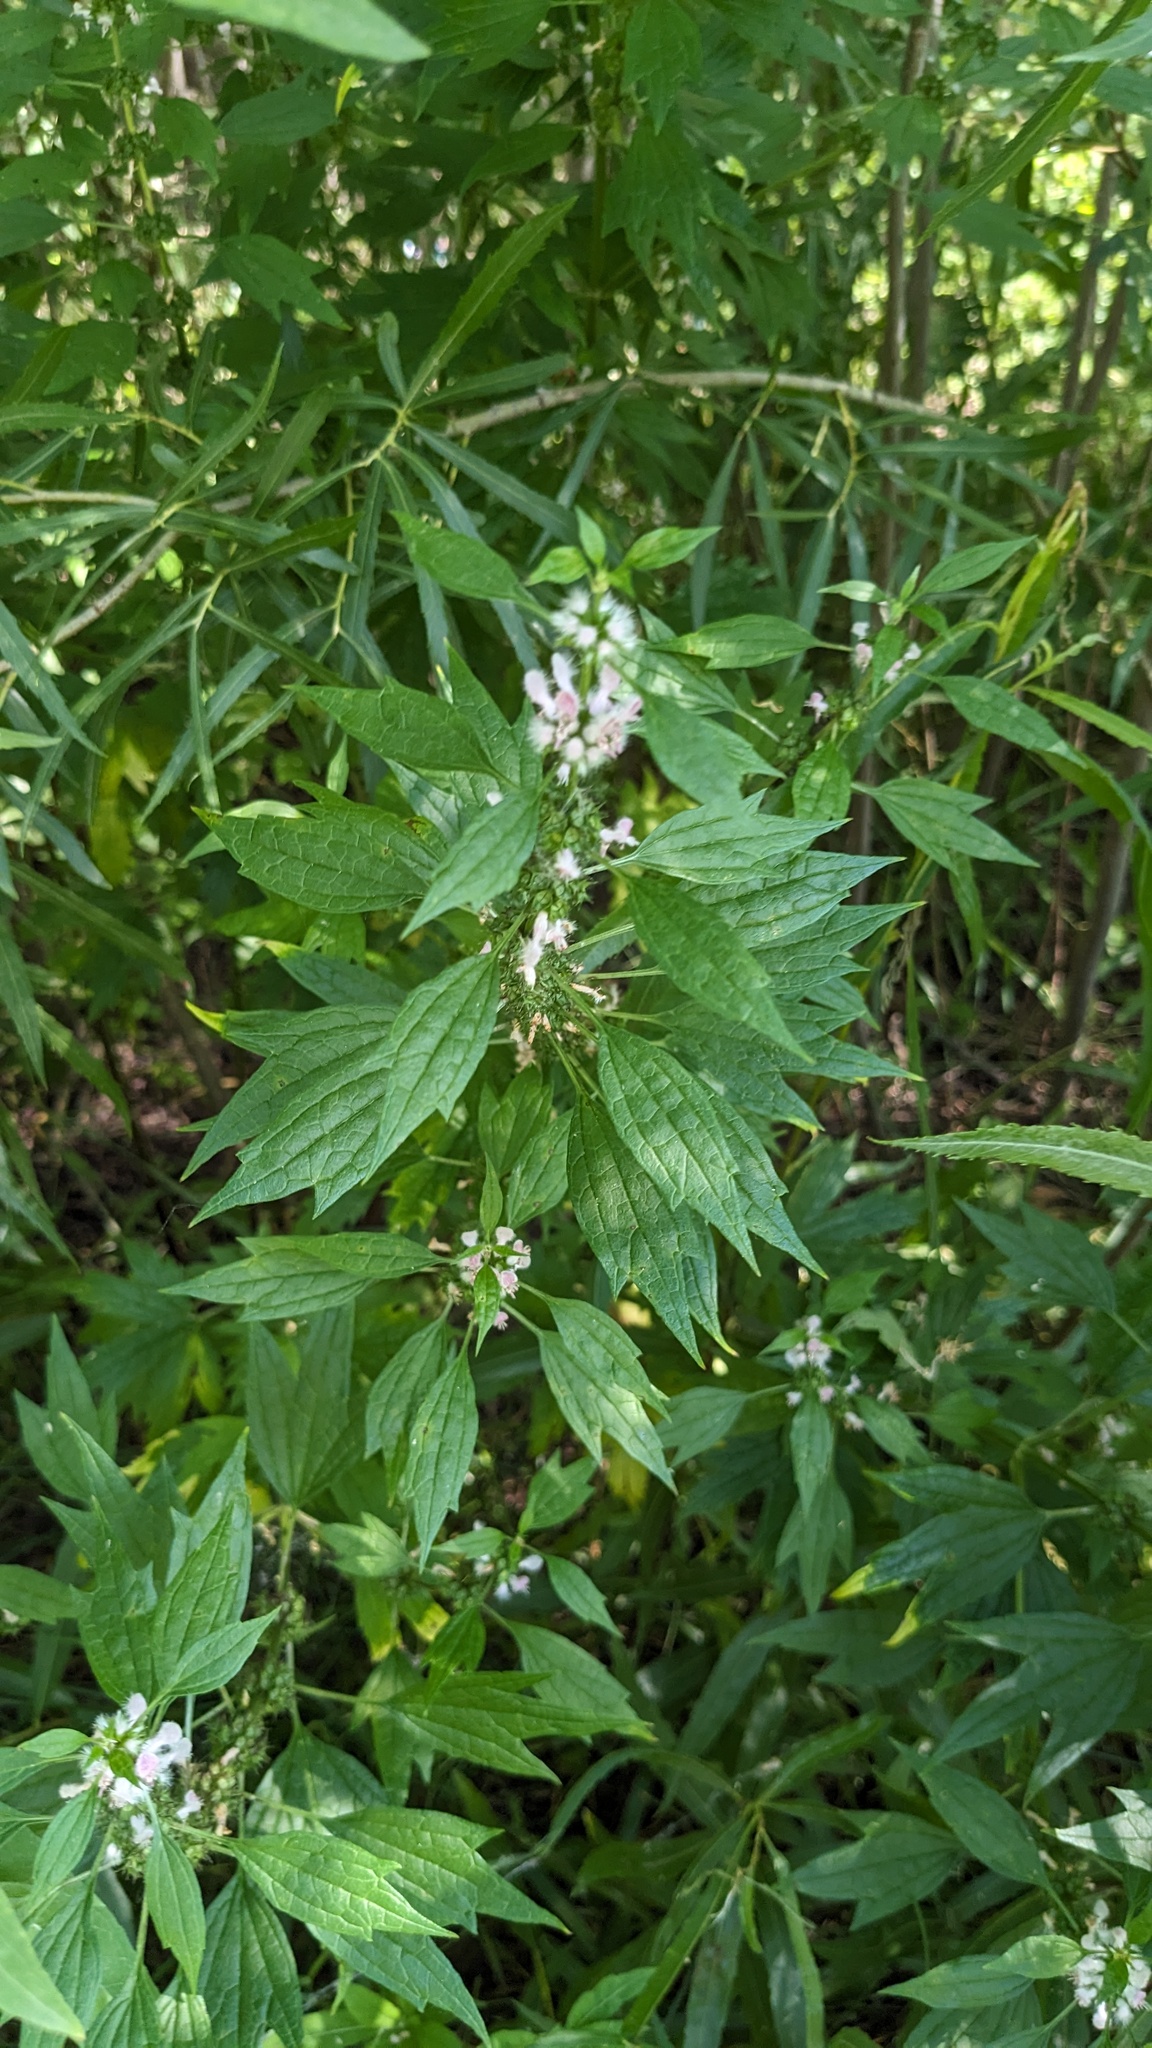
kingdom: Plantae
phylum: Tracheophyta
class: Magnoliopsida
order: Lamiales
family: Lamiaceae
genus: Leonurus
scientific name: Leonurus cardiaca
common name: Motherwort
